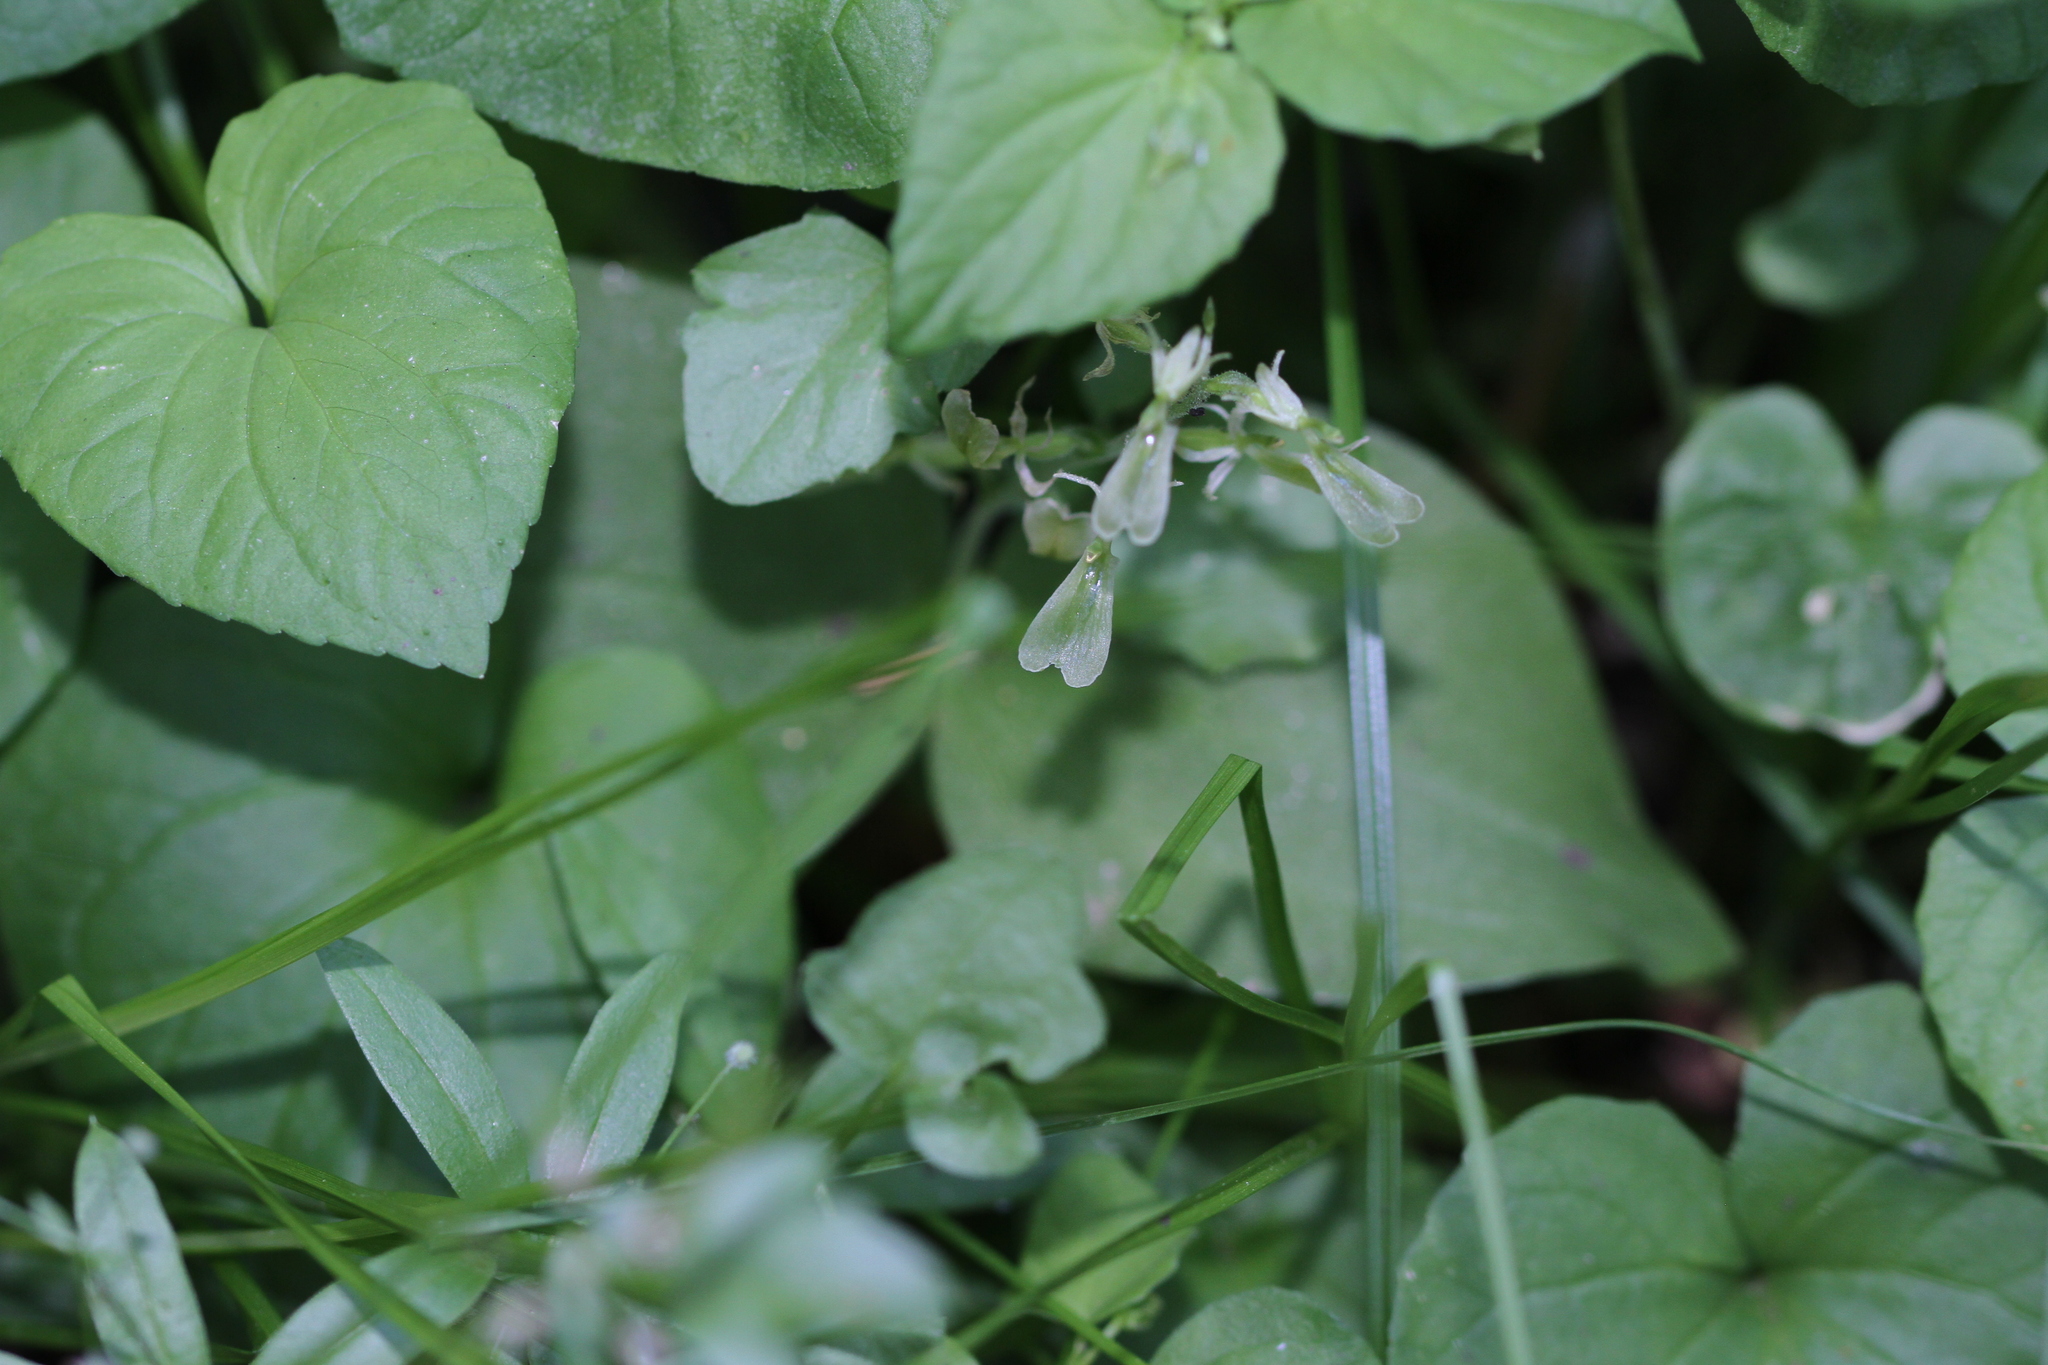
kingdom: Plantae
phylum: Tracheophyta
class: Liliopsida
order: Asparagales
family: Orchidaceae
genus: Neottia
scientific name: Neottia convallarioides
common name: Broadleaf twayblade
